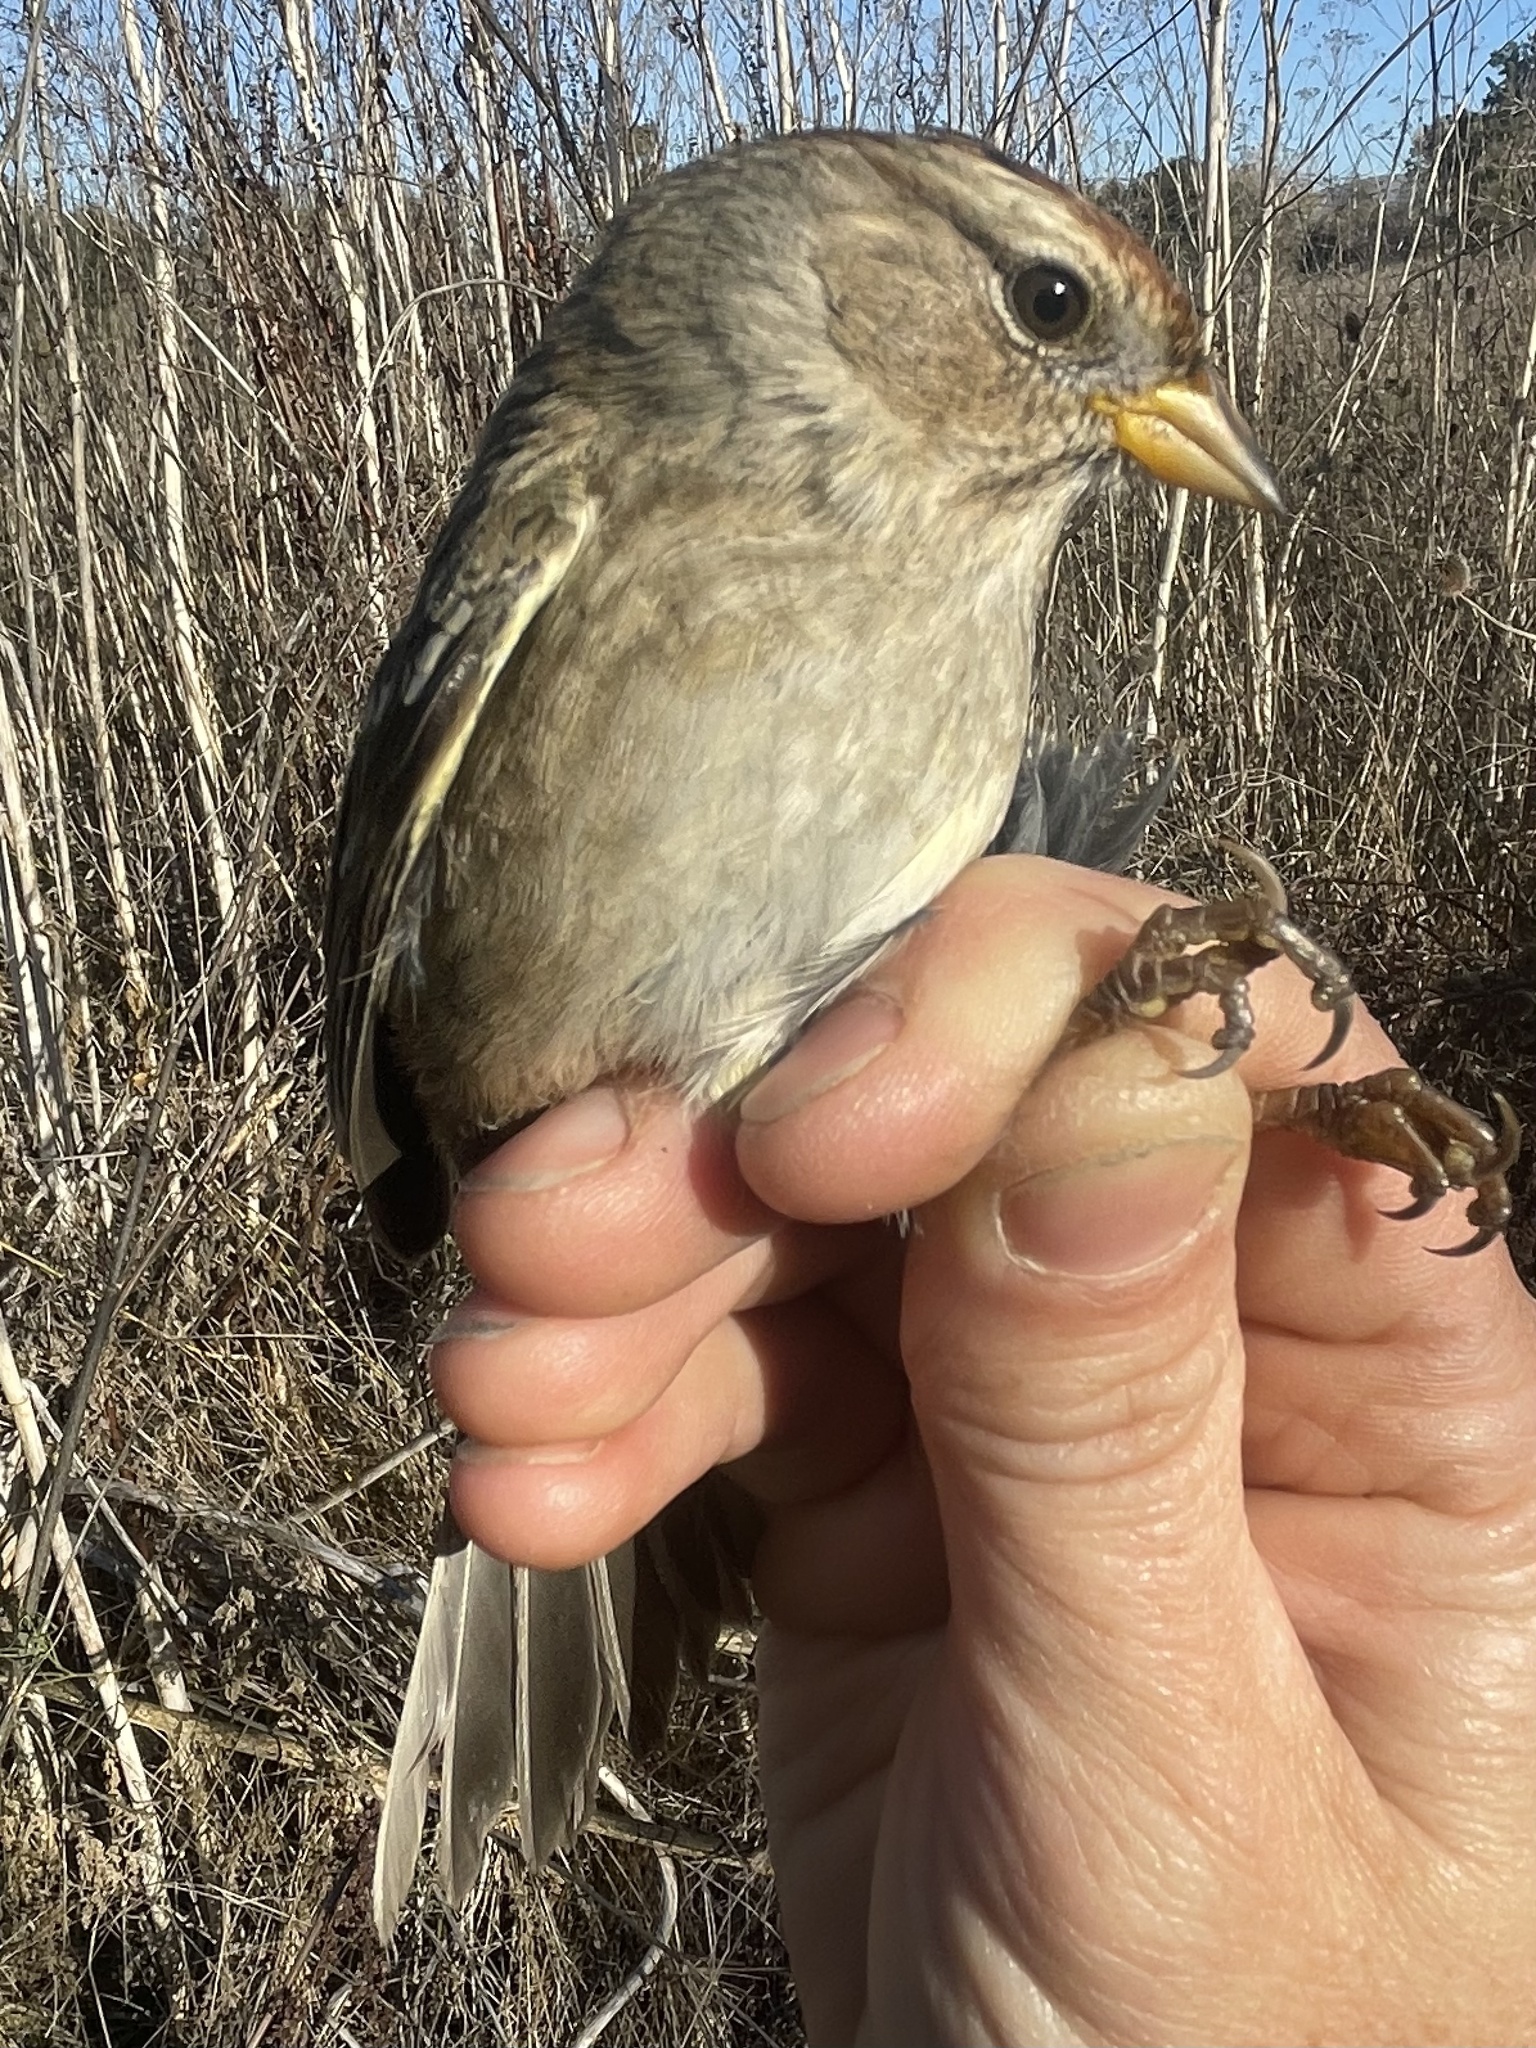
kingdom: Animalia
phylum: Chordata
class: Aves
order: Passeriformes
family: Passerellidae
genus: Zonotrichia
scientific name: Zonotrichia leucophrys
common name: White-crowned sparrow
